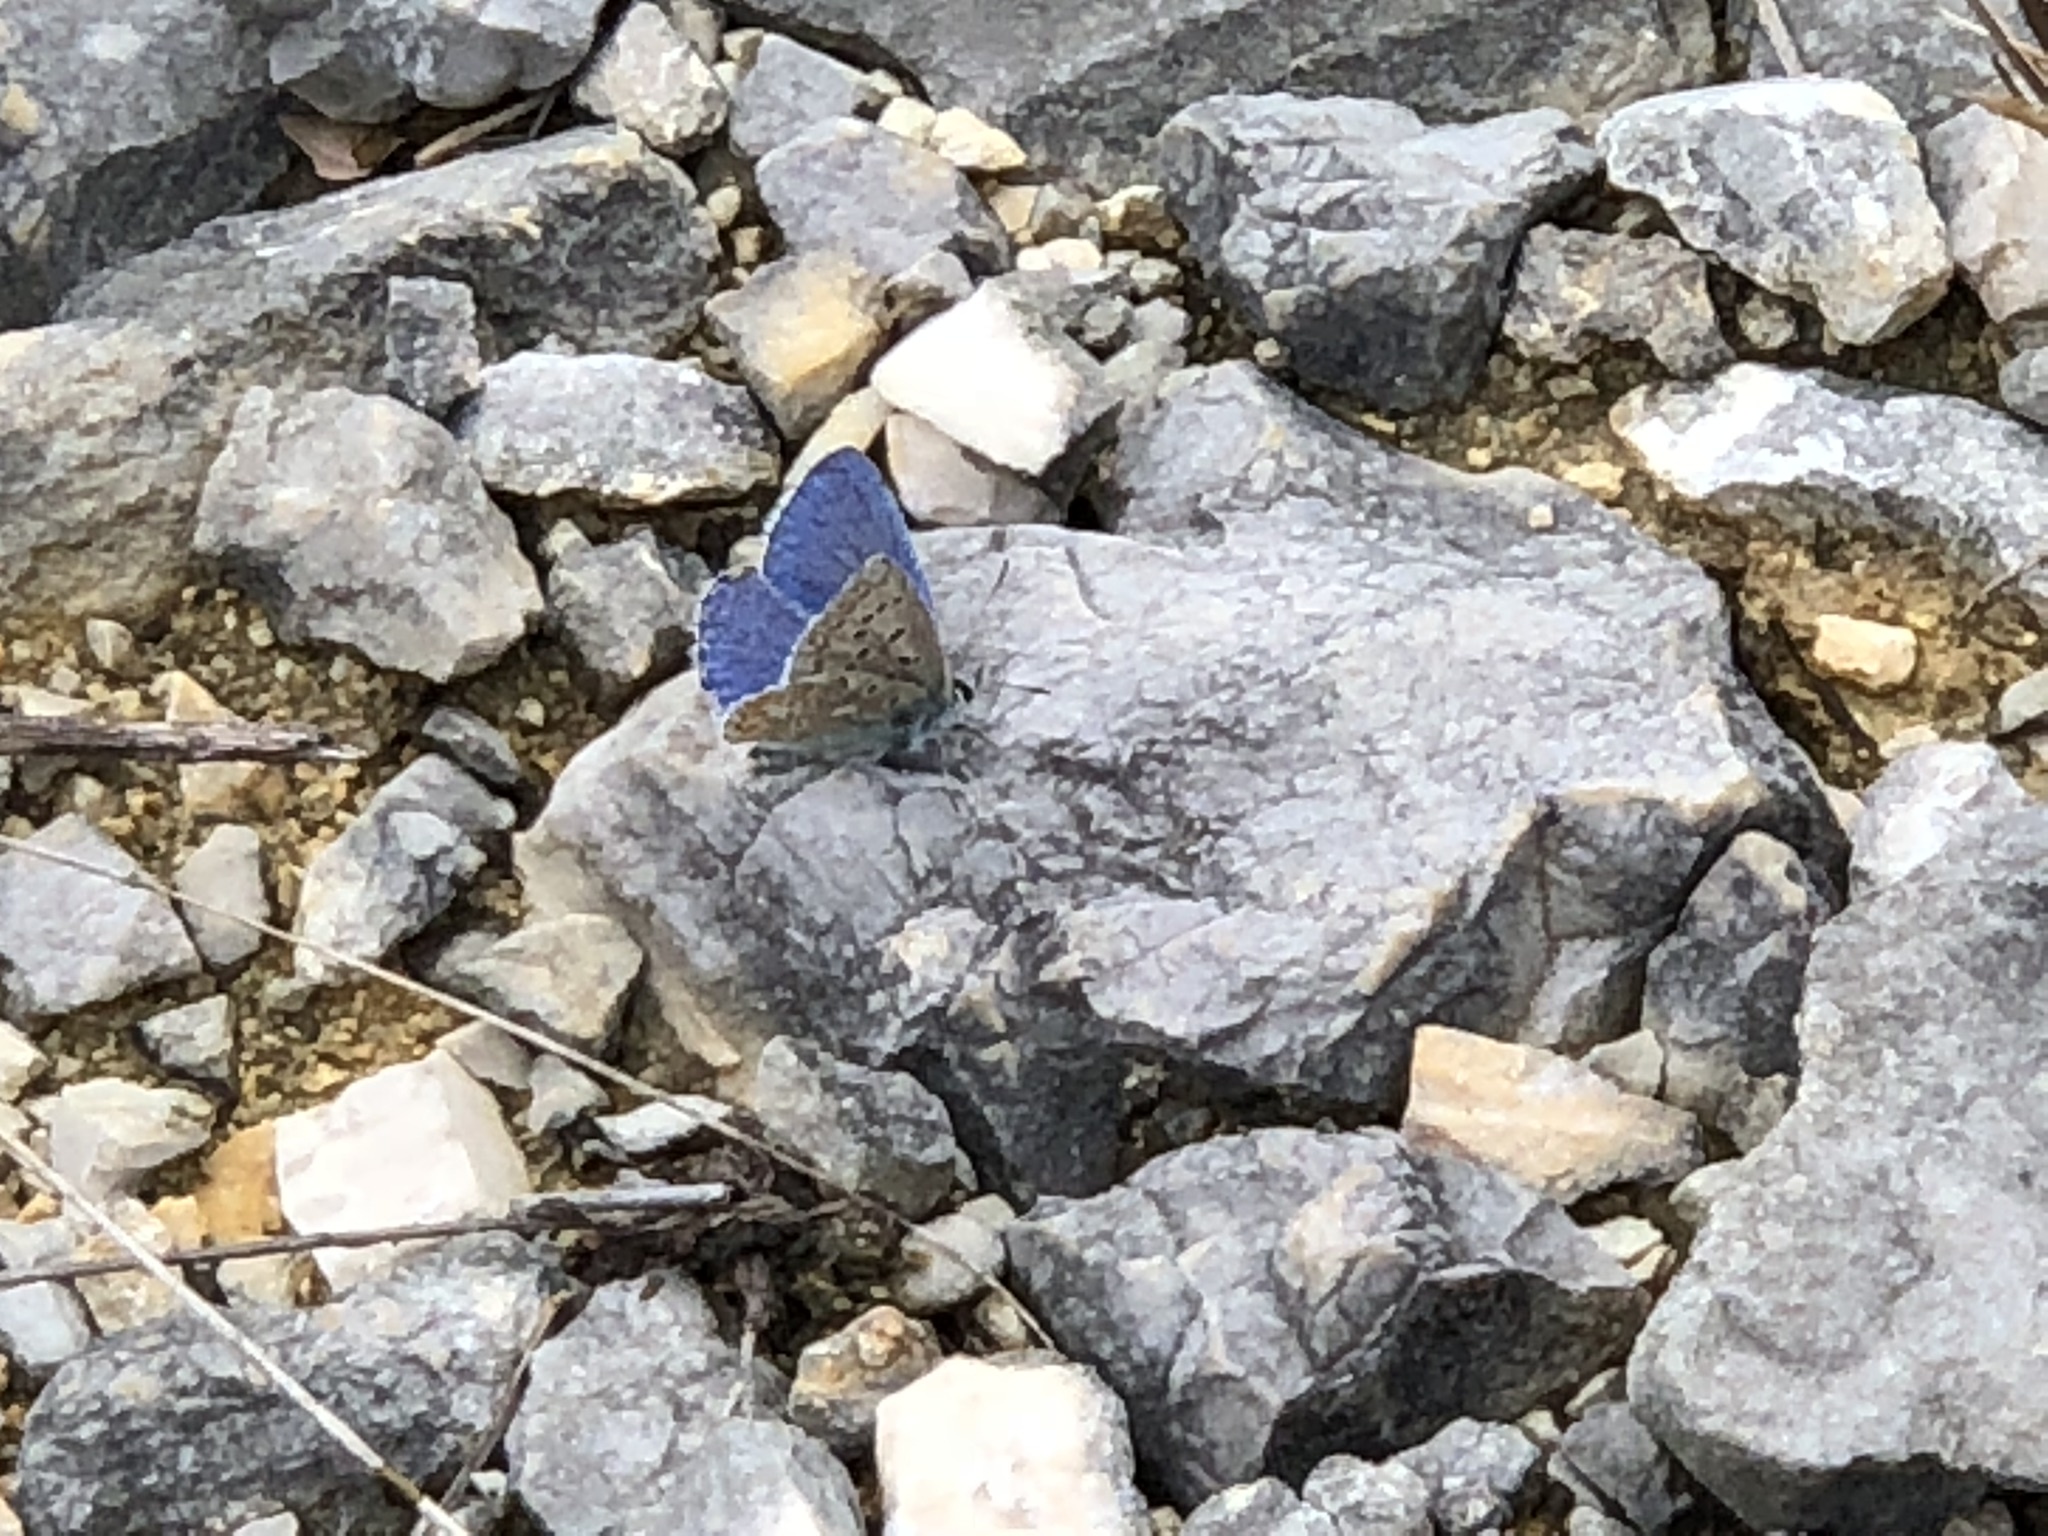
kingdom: Animalia
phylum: Arthropoda
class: Insecta
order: Lepidoptera
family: Lycaenidae
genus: Lysandra
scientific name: Lysandra bellargus
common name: Adonis blue
